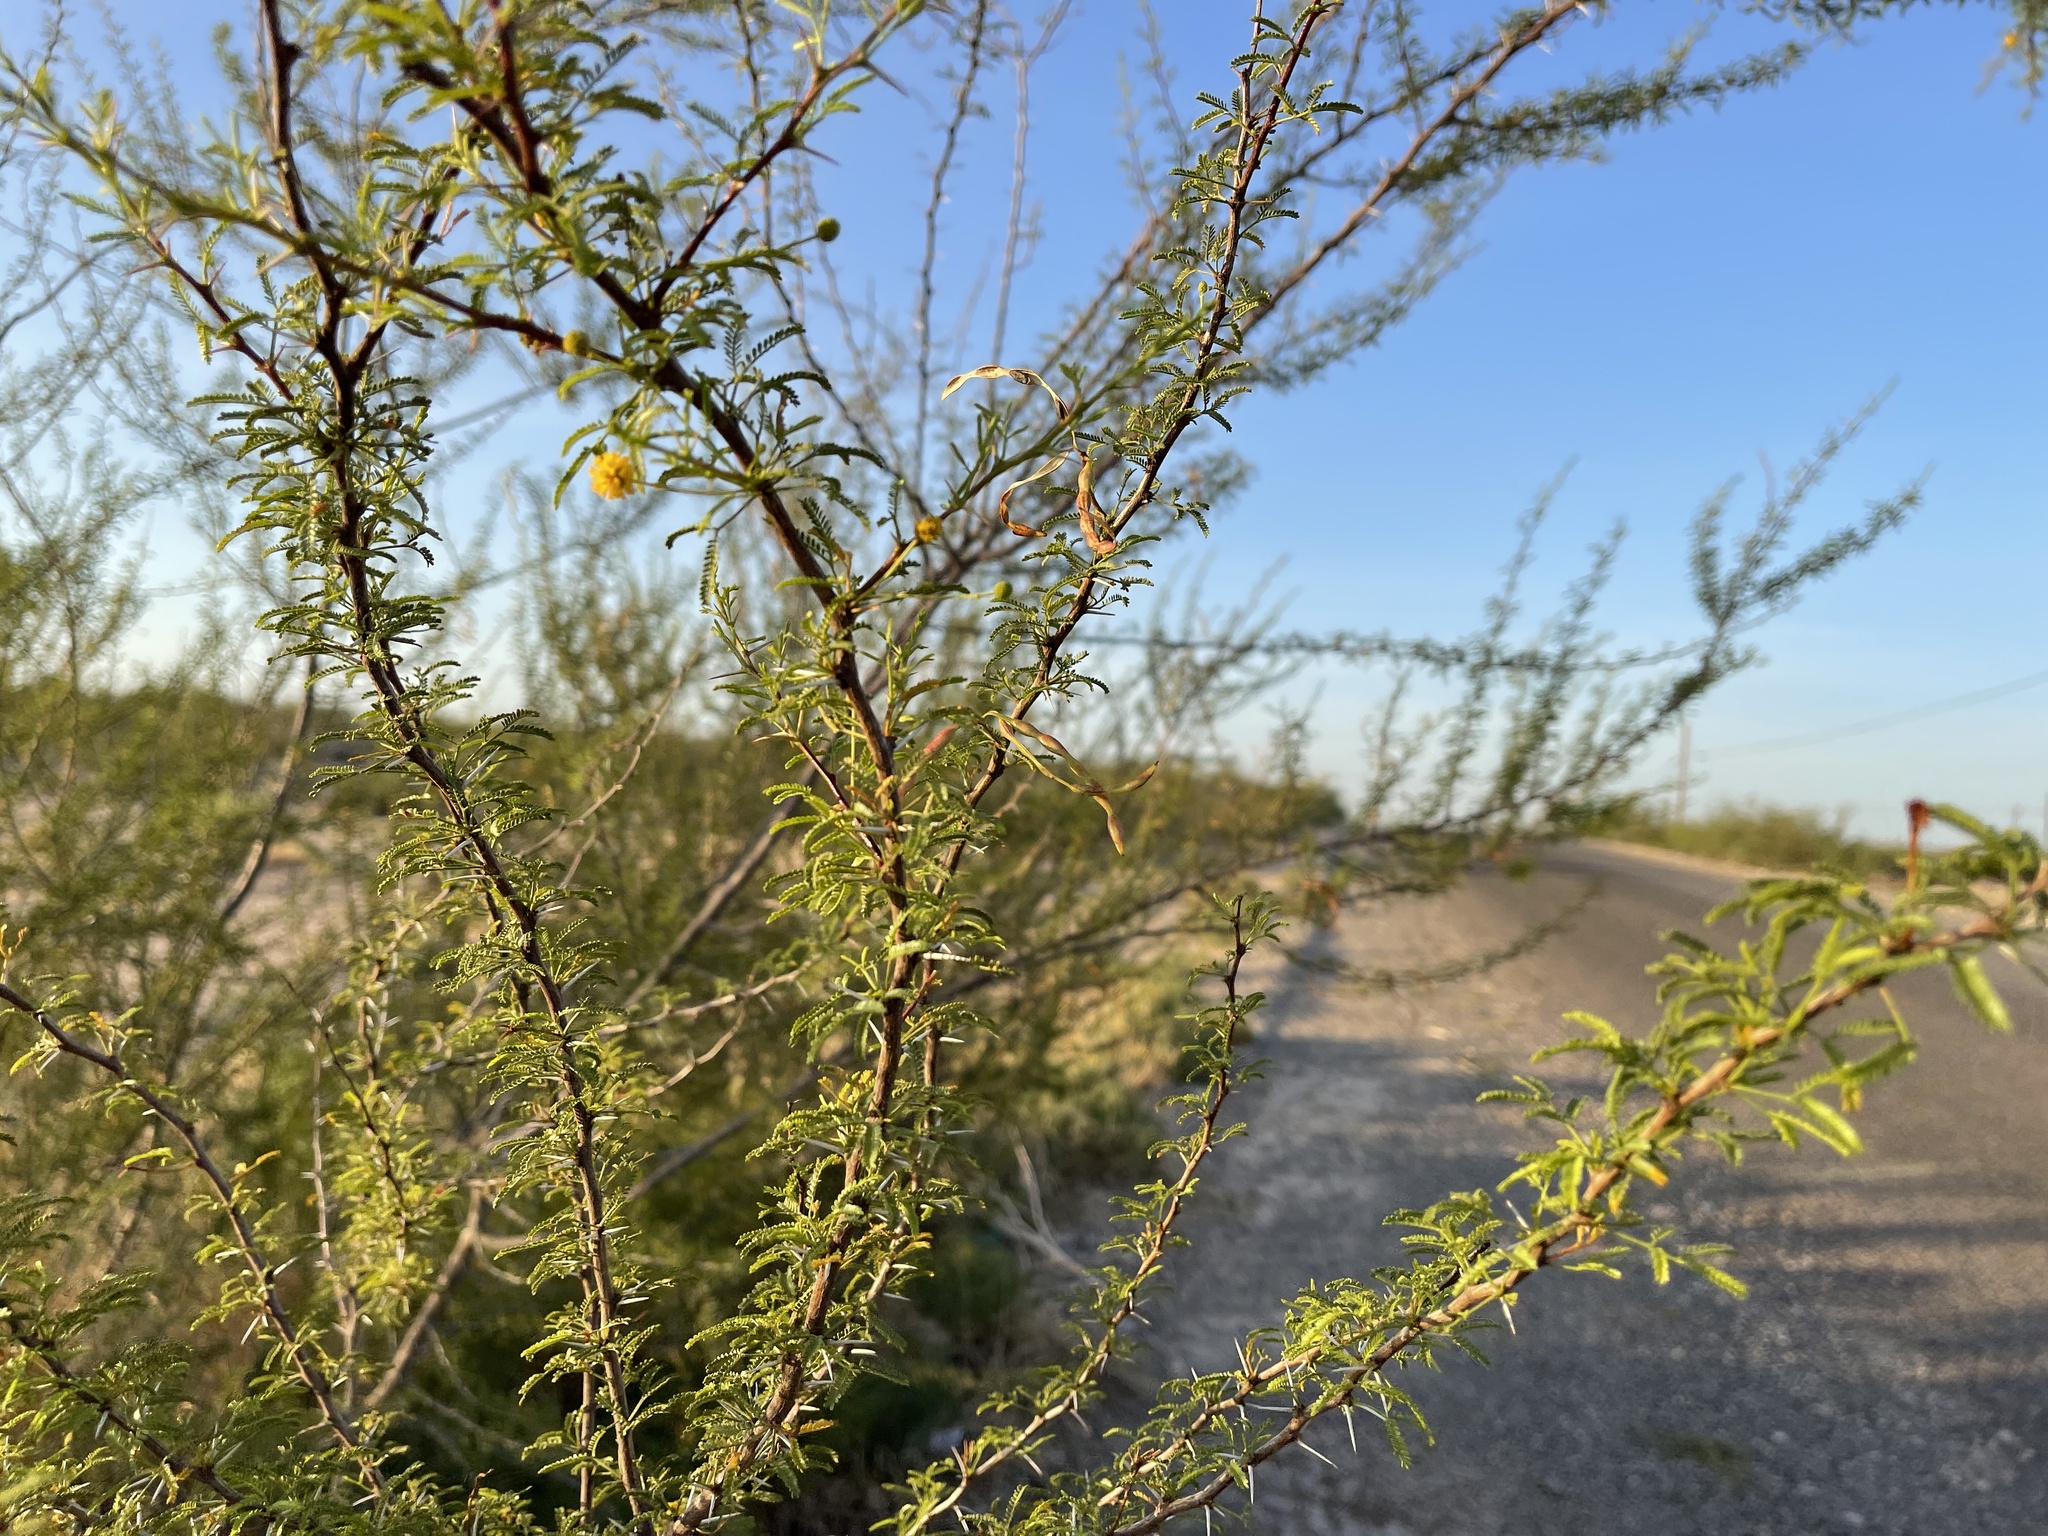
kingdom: Plantae
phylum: Tracheophyta
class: Magnoliopsida
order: Fabales
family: Fabaceae
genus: Vachellia
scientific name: Vachellia vernicosa
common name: Viscid acacia
